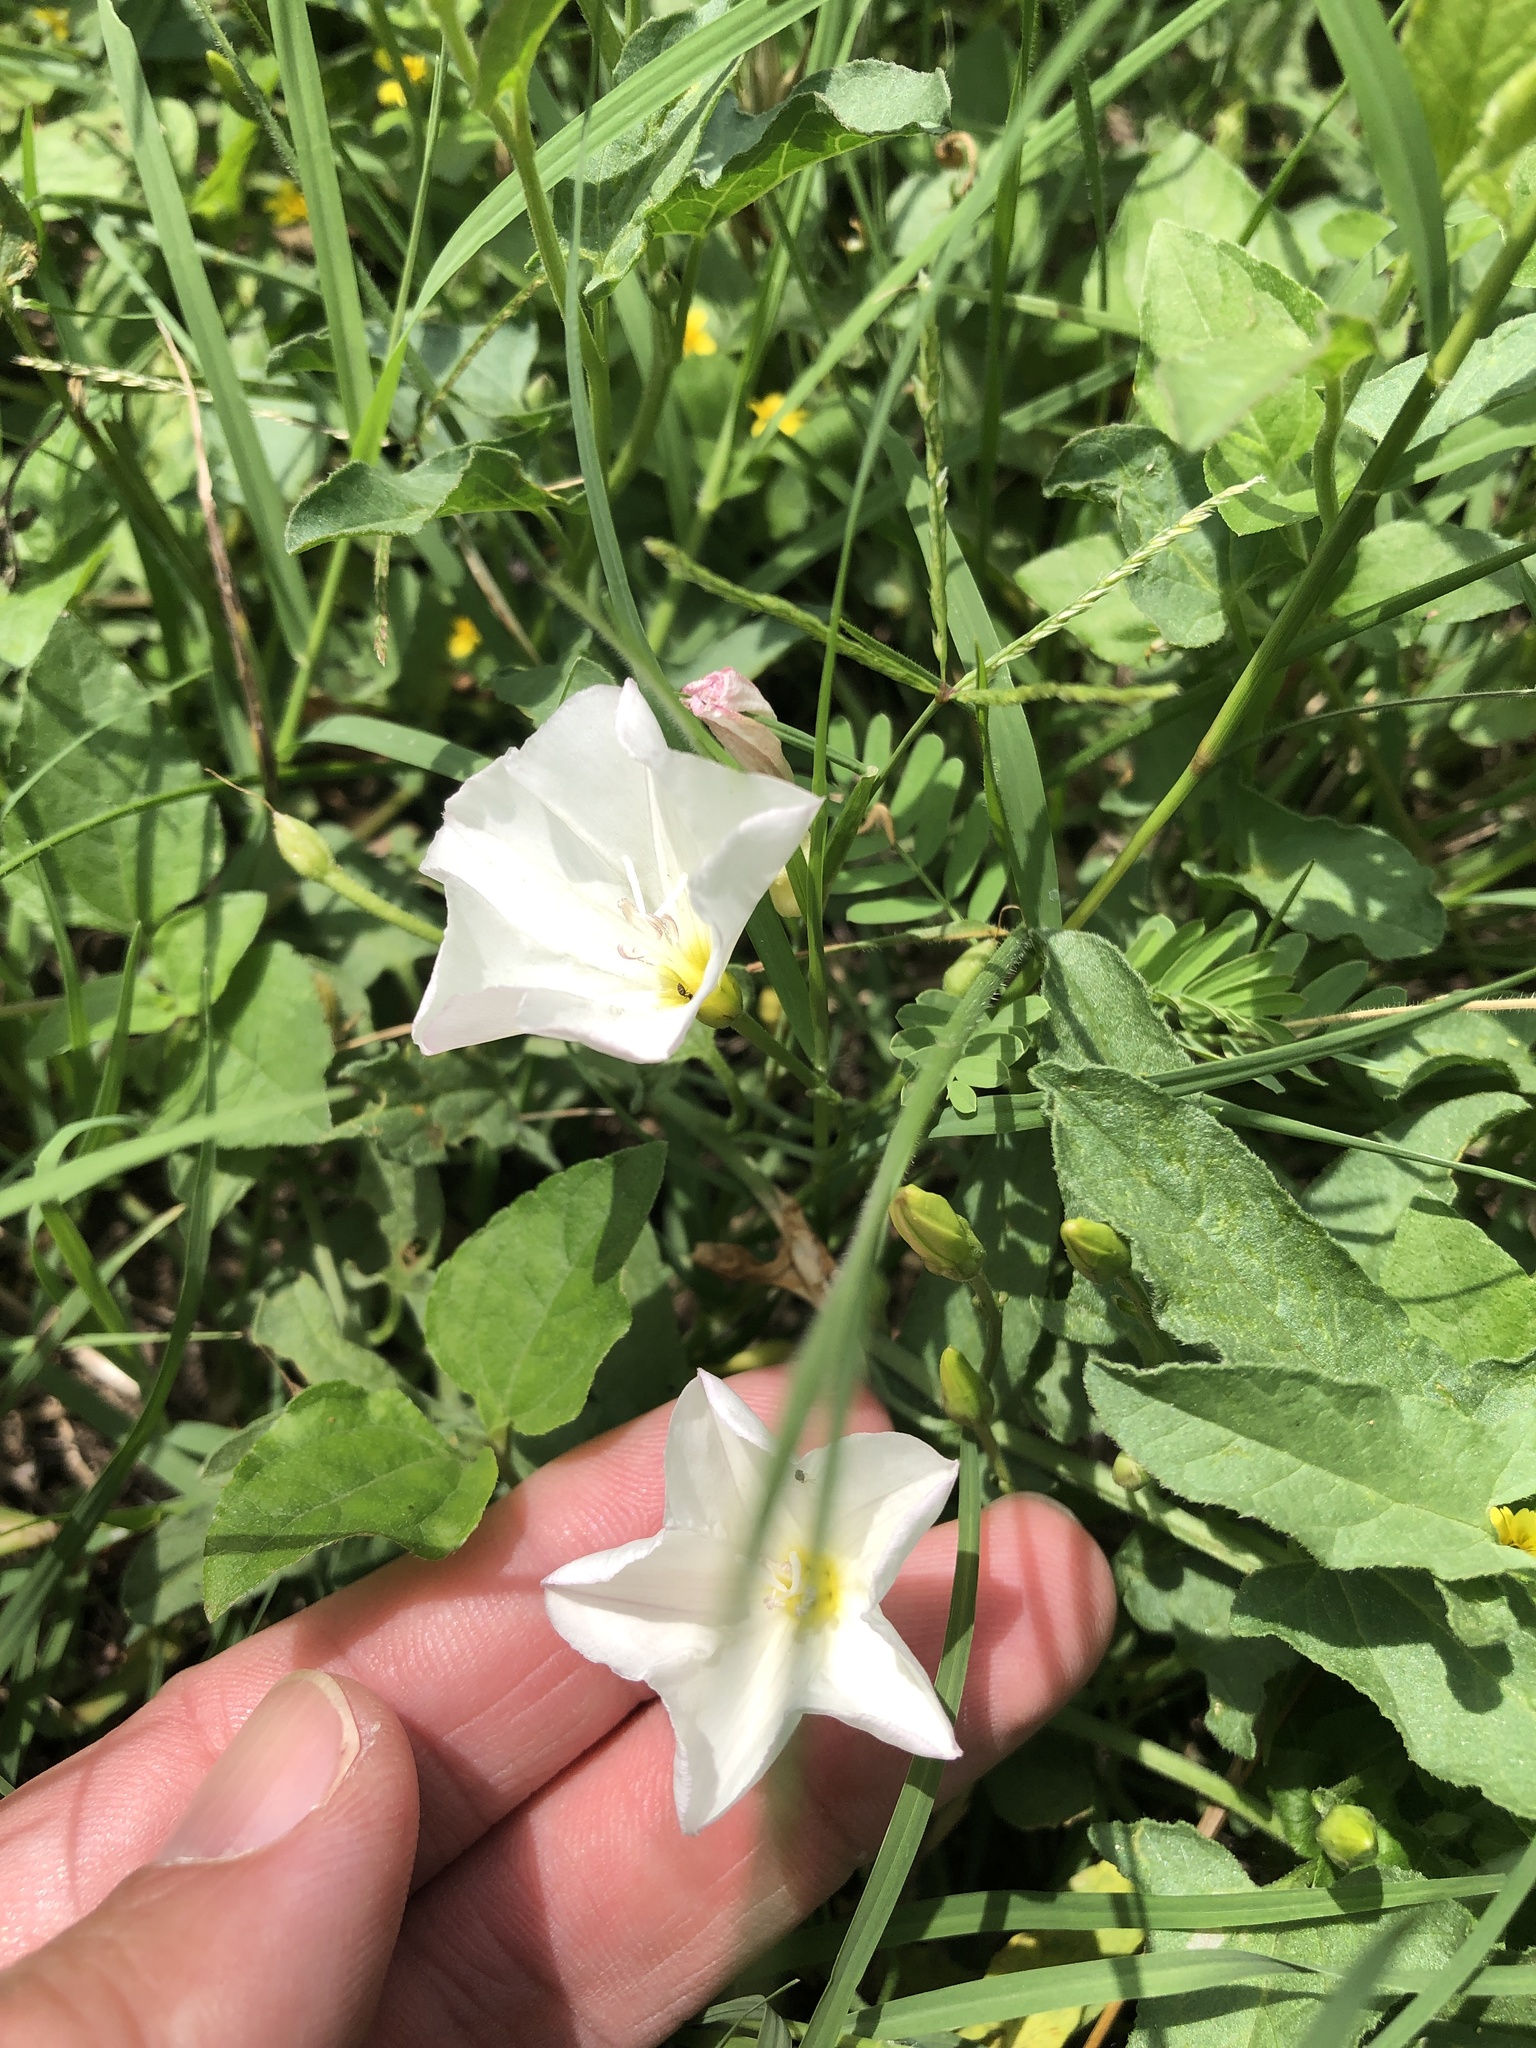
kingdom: Plantae
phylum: Tracheophyta
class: Magnoliopsida
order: Solanales
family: Convolvulaceae
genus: Convolvulus
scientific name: Convolvulus arvensis
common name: Field bindweed
